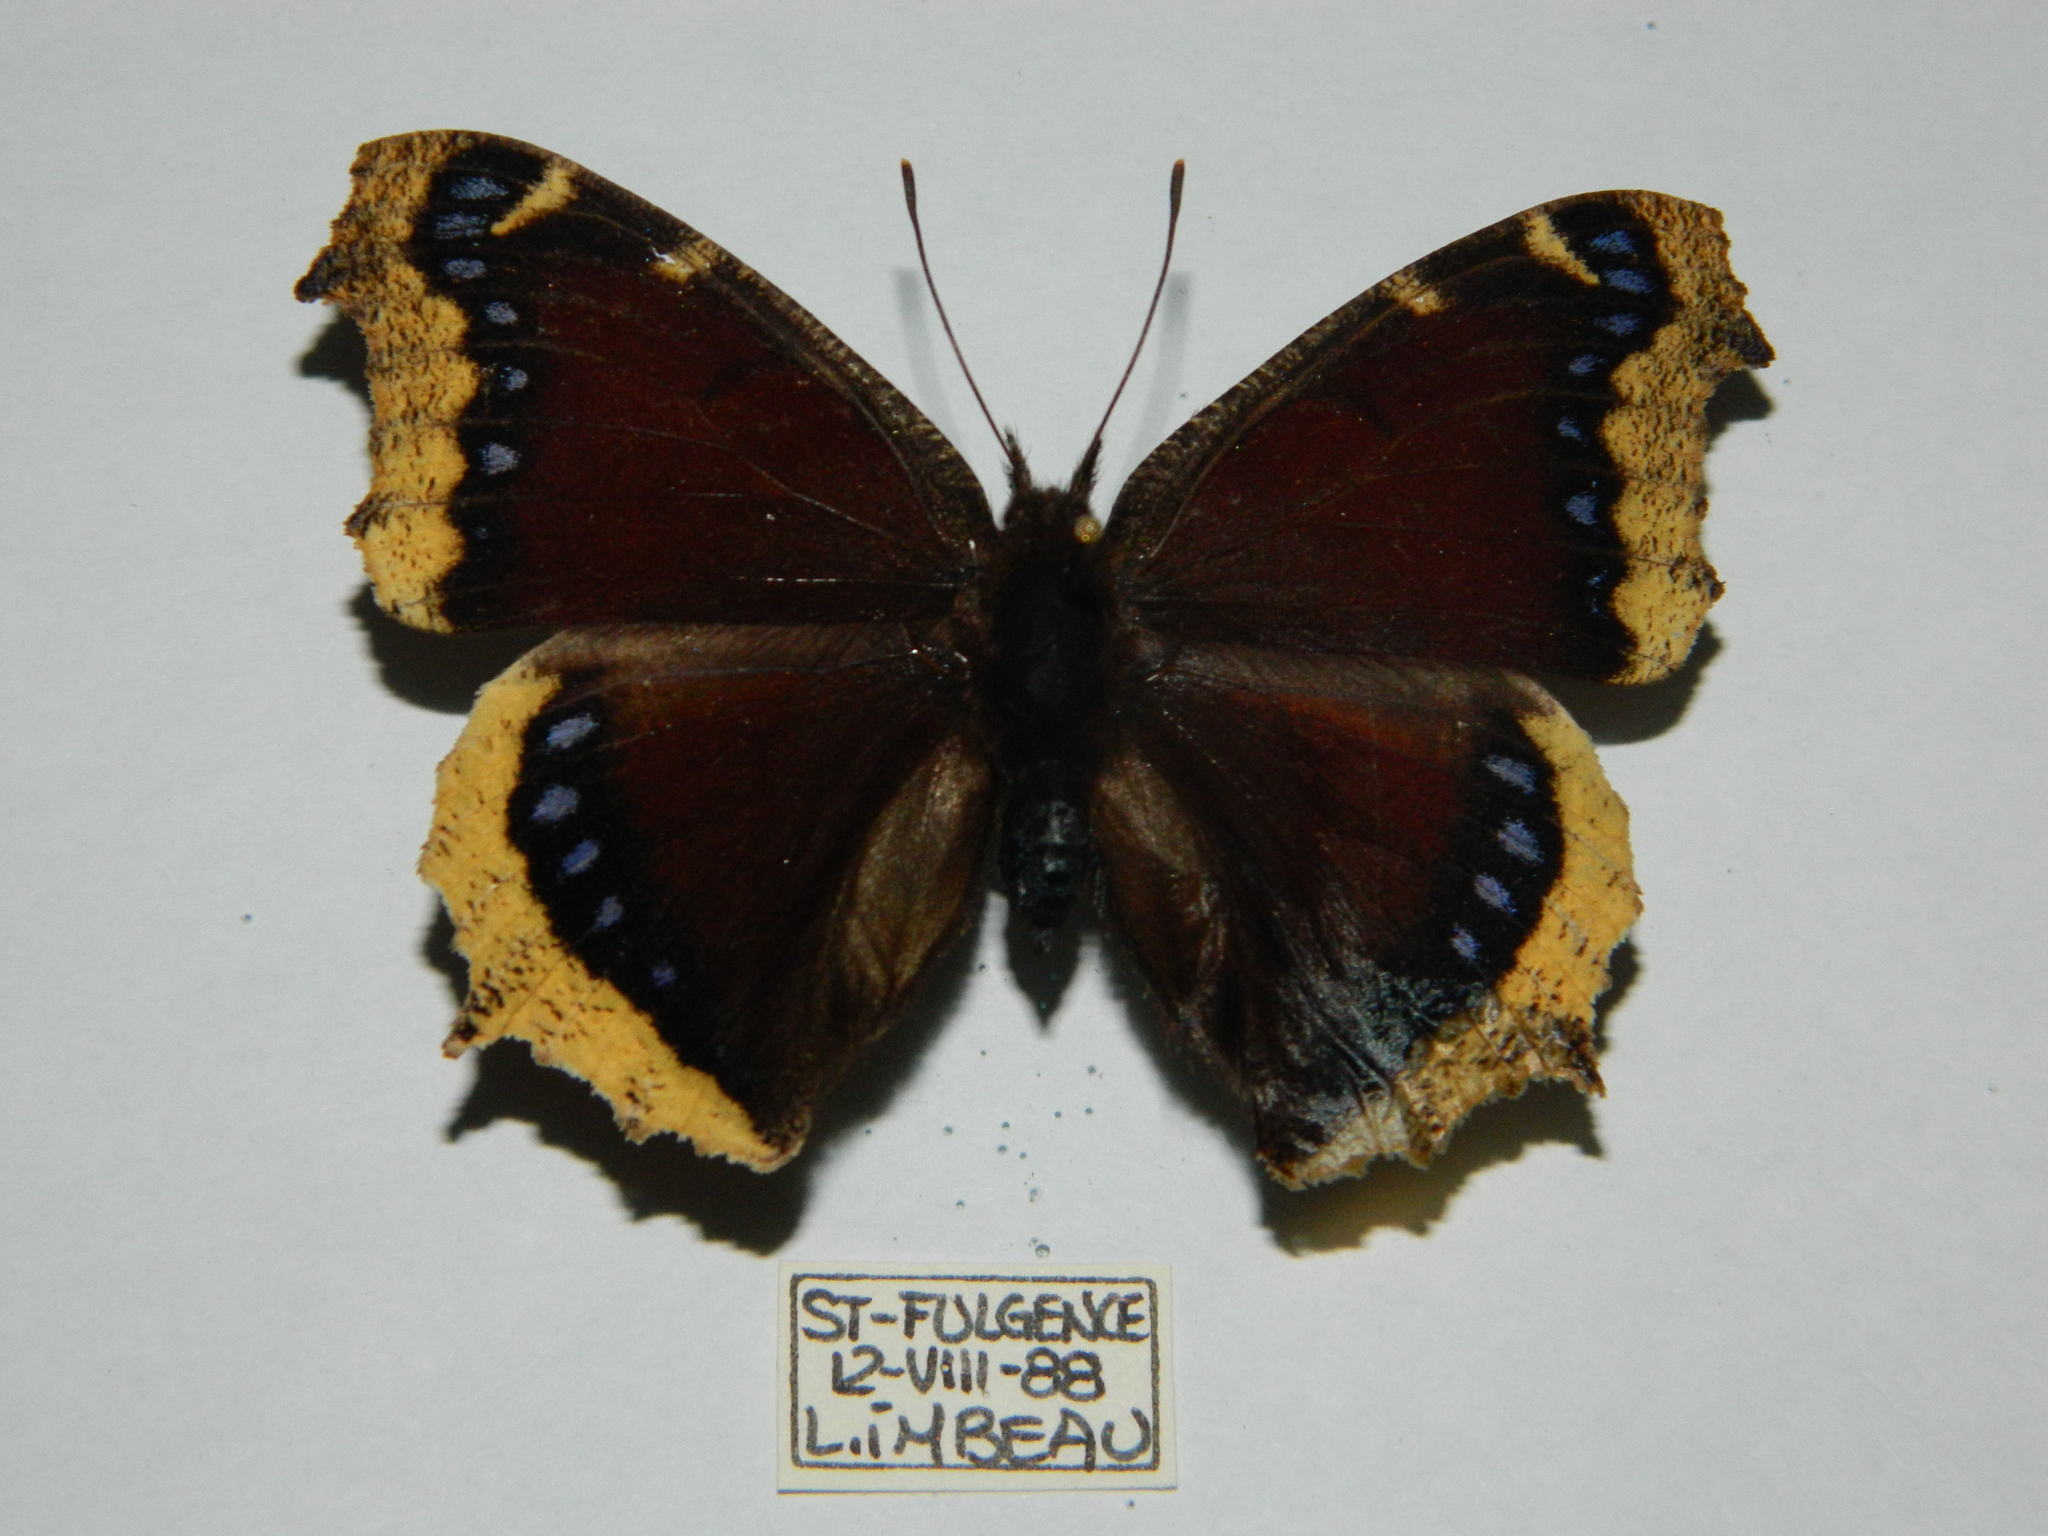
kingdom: Animalia
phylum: Arthropoda
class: Insecta
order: Lepidoptera
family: Nymphalidae
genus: Nymphalis
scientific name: Nymphalis antiopa
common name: Camberwell beauty
